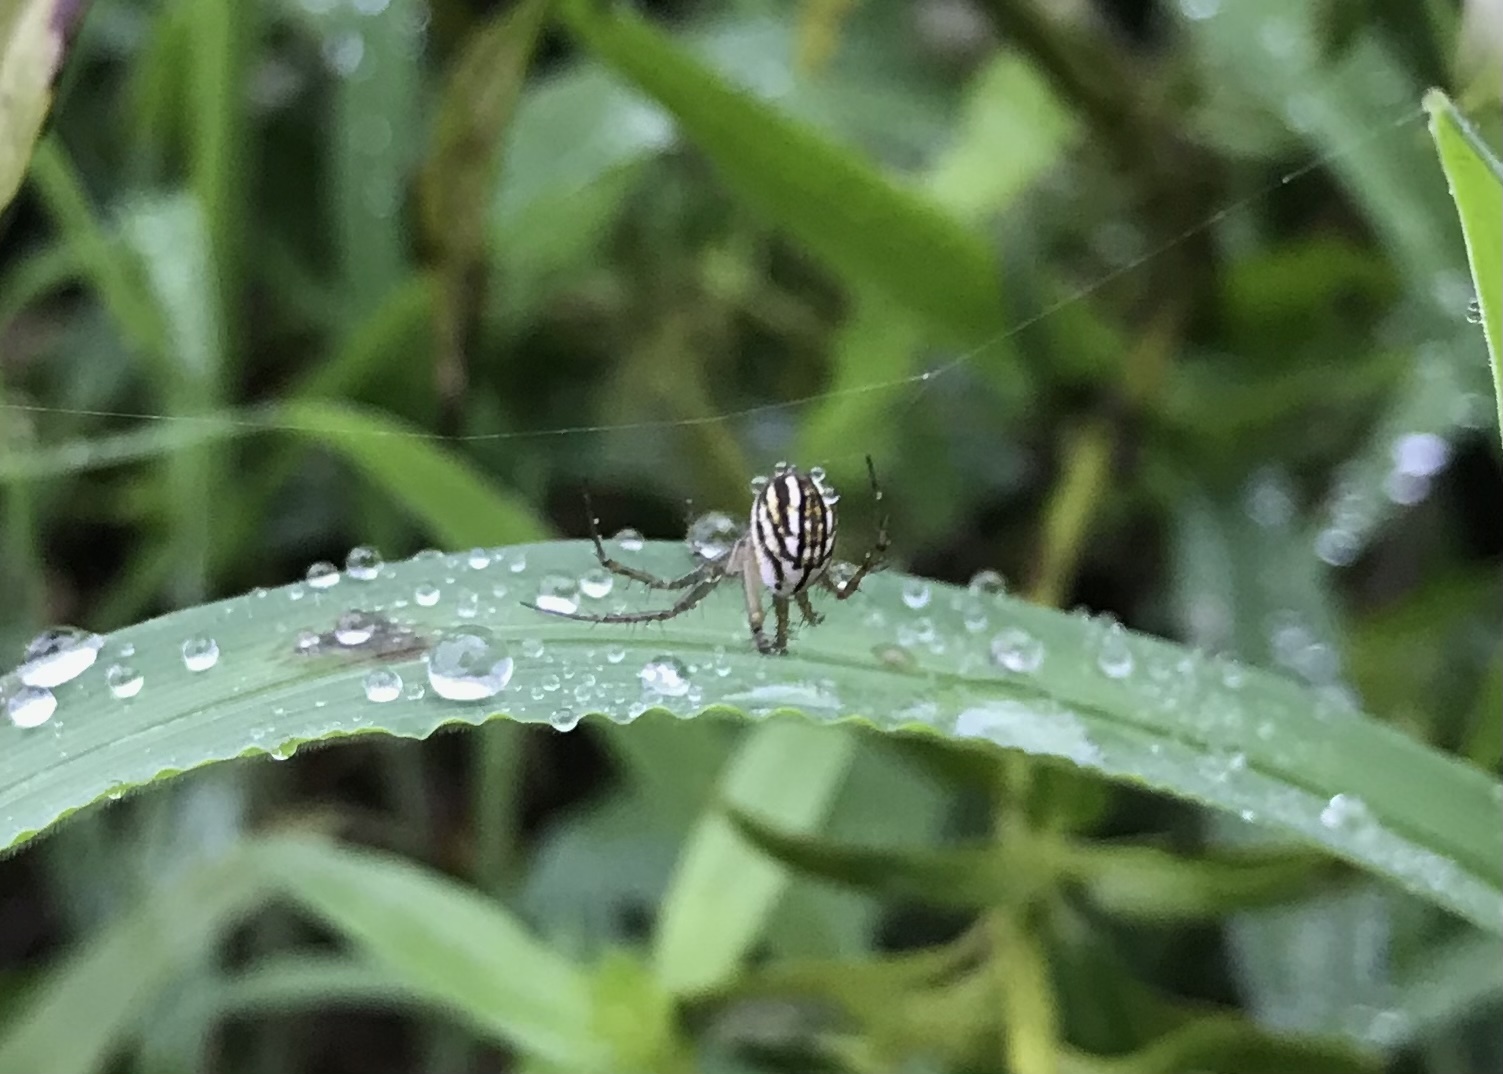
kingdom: Animalia
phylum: Arthropoda
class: Arachnida
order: Araneae
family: Araneidae
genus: Mangora
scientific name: Mangora gibberosa
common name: Lined orbweaver
